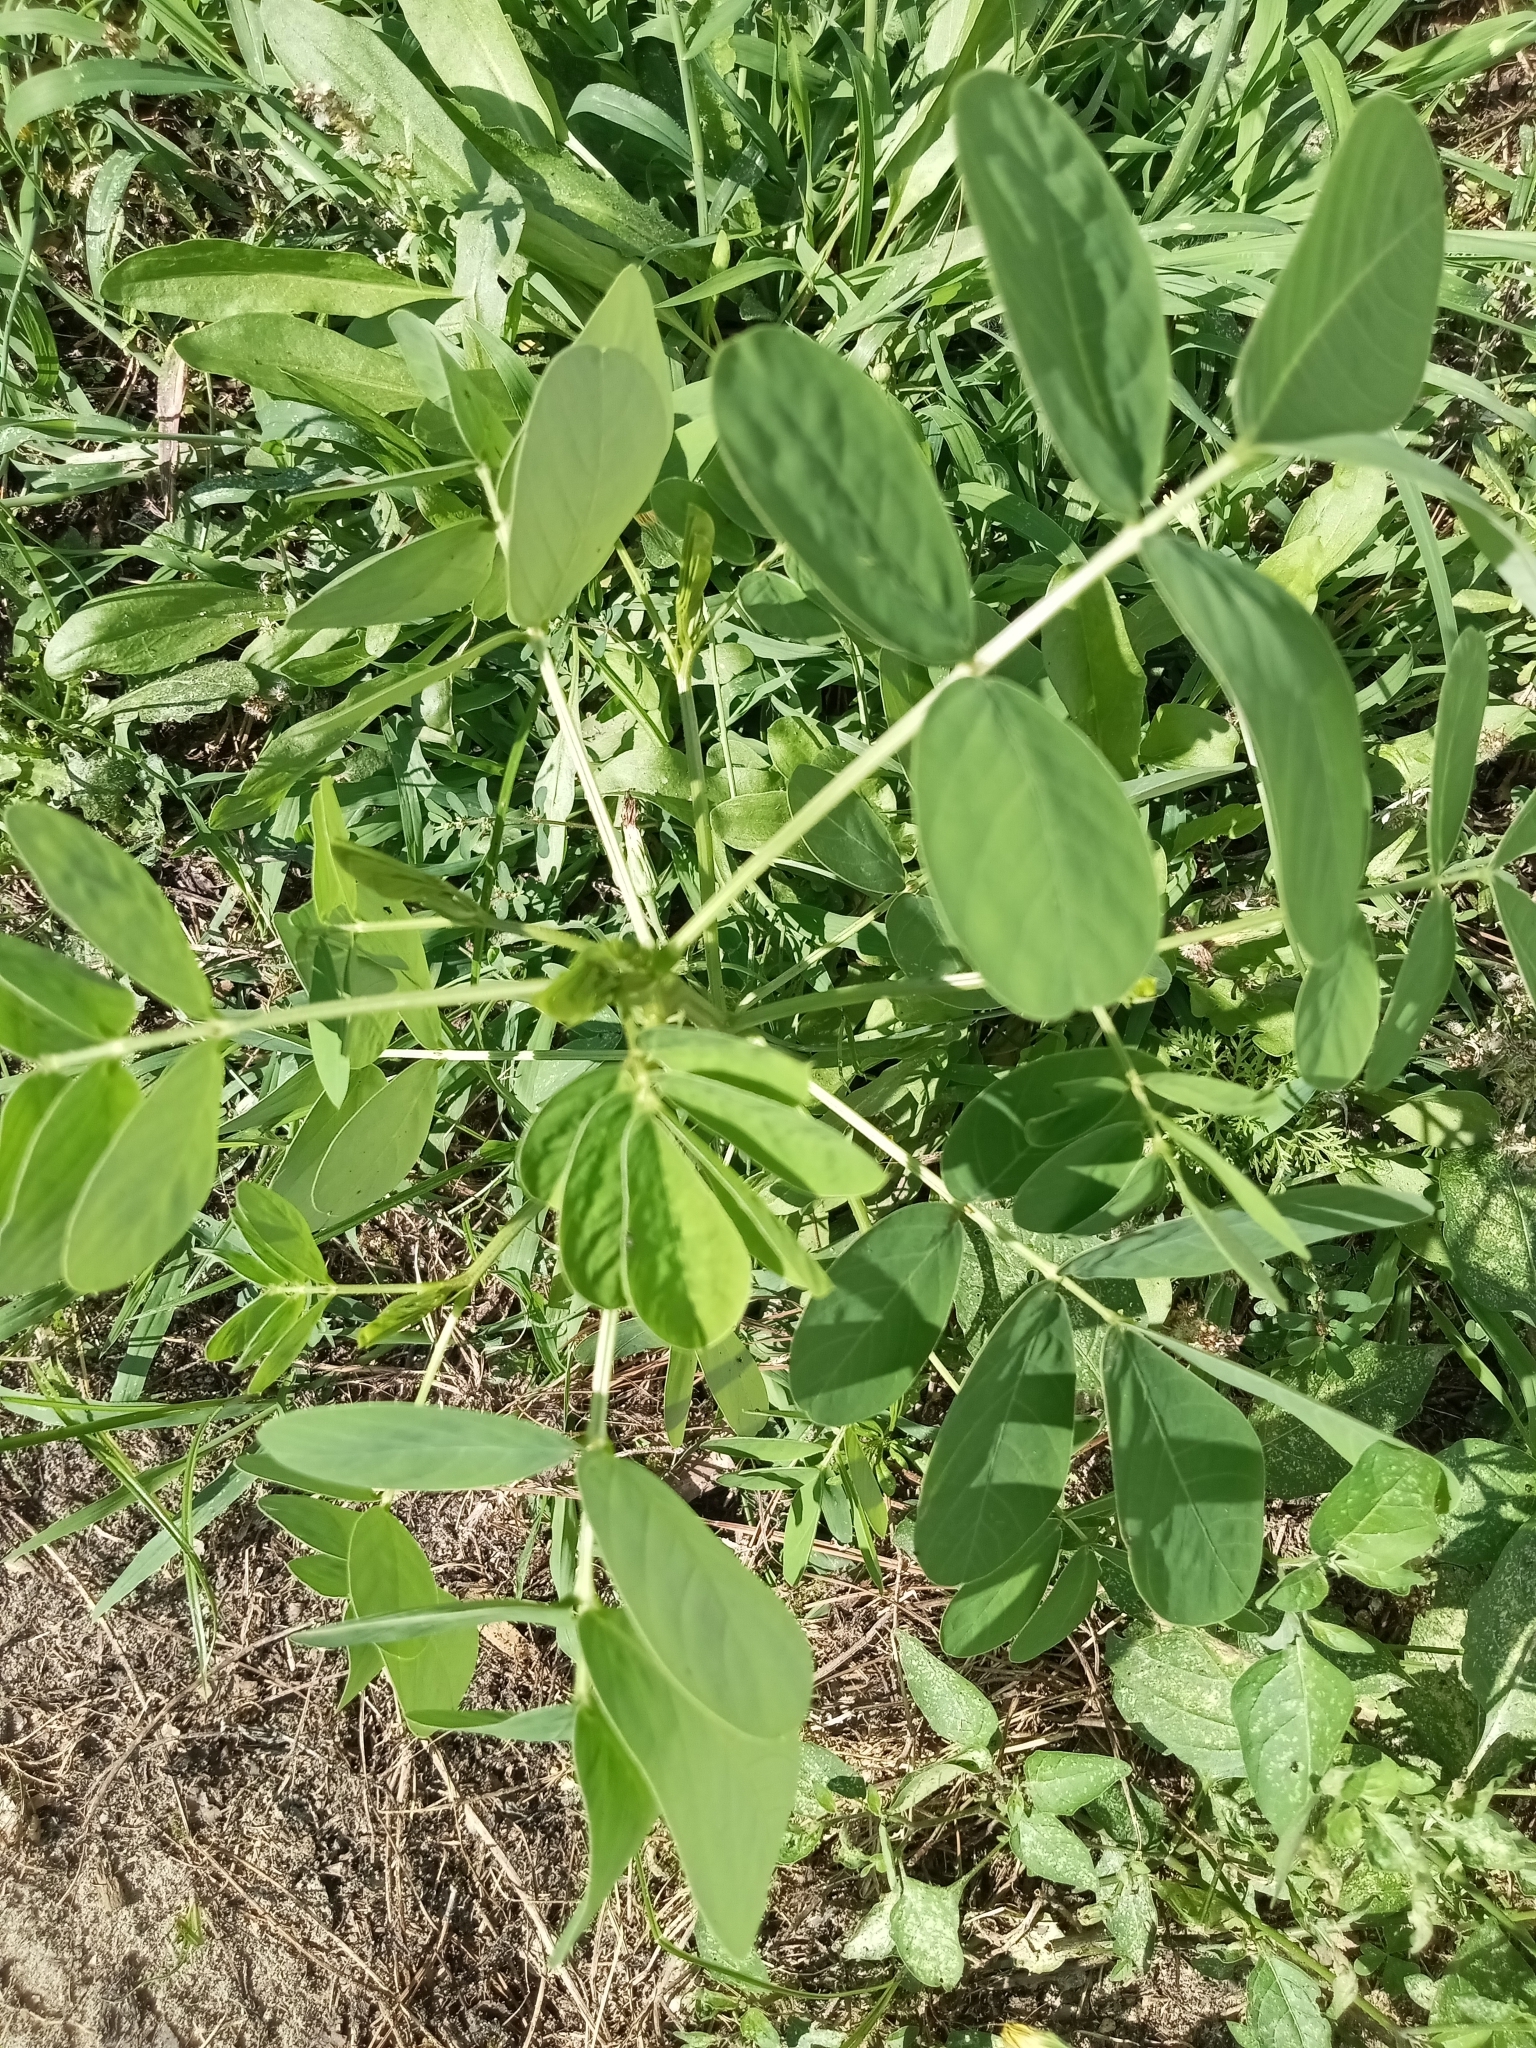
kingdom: Plantae
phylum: Tracheophyta
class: Magnoliopsida
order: Fabales
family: Fabaceae
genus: Senna
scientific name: Senna obtusifolia
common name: Java-bean
